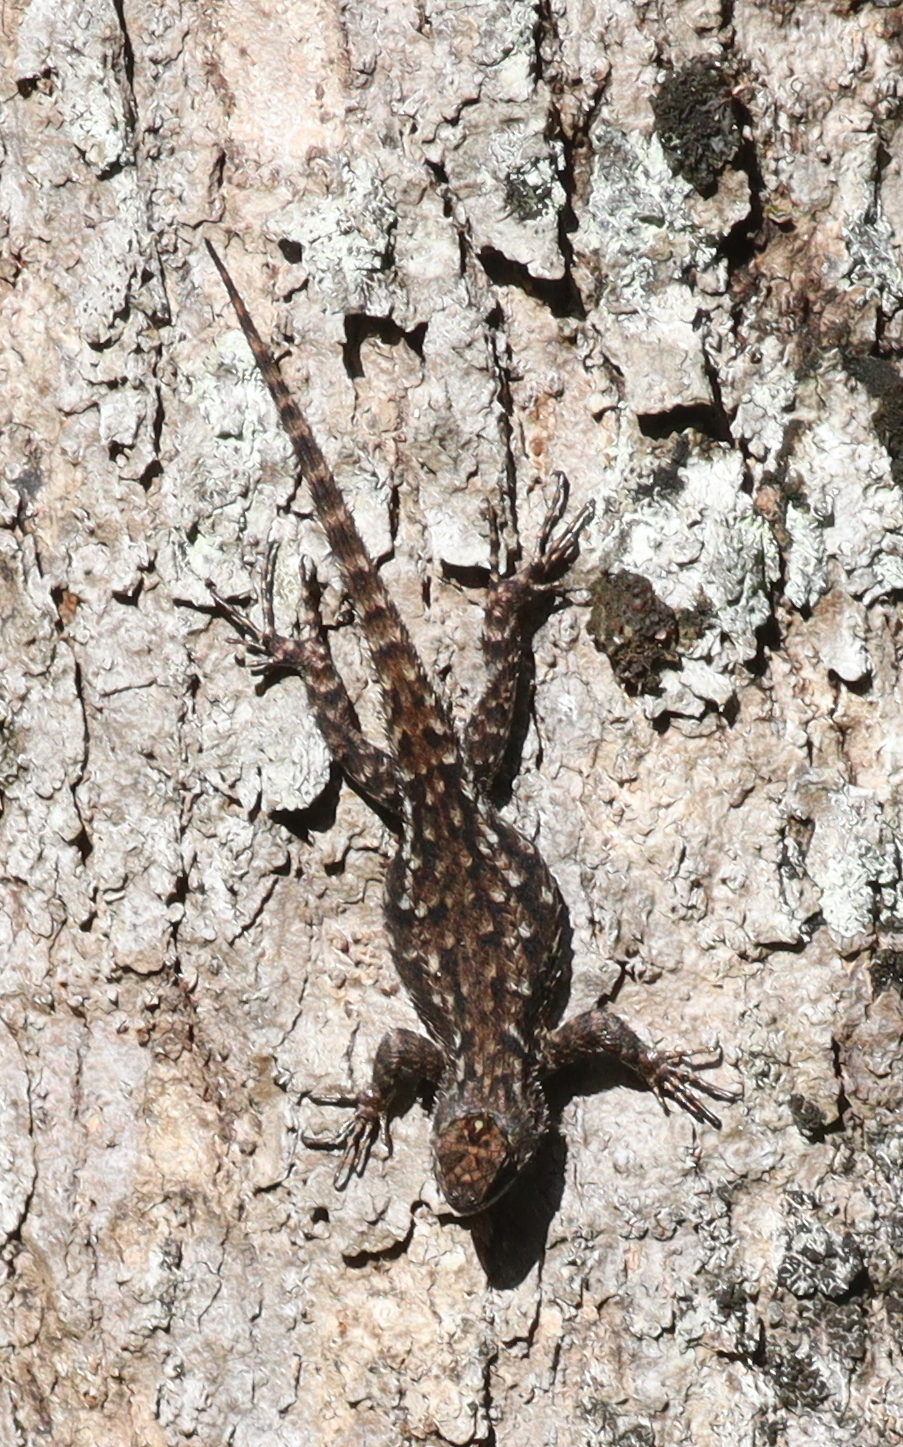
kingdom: Animalia
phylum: Chordata
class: Squamata
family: Phrynosomatidae
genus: Sceloporus
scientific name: Sceloporus malachiticus
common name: Green spiny lizard
